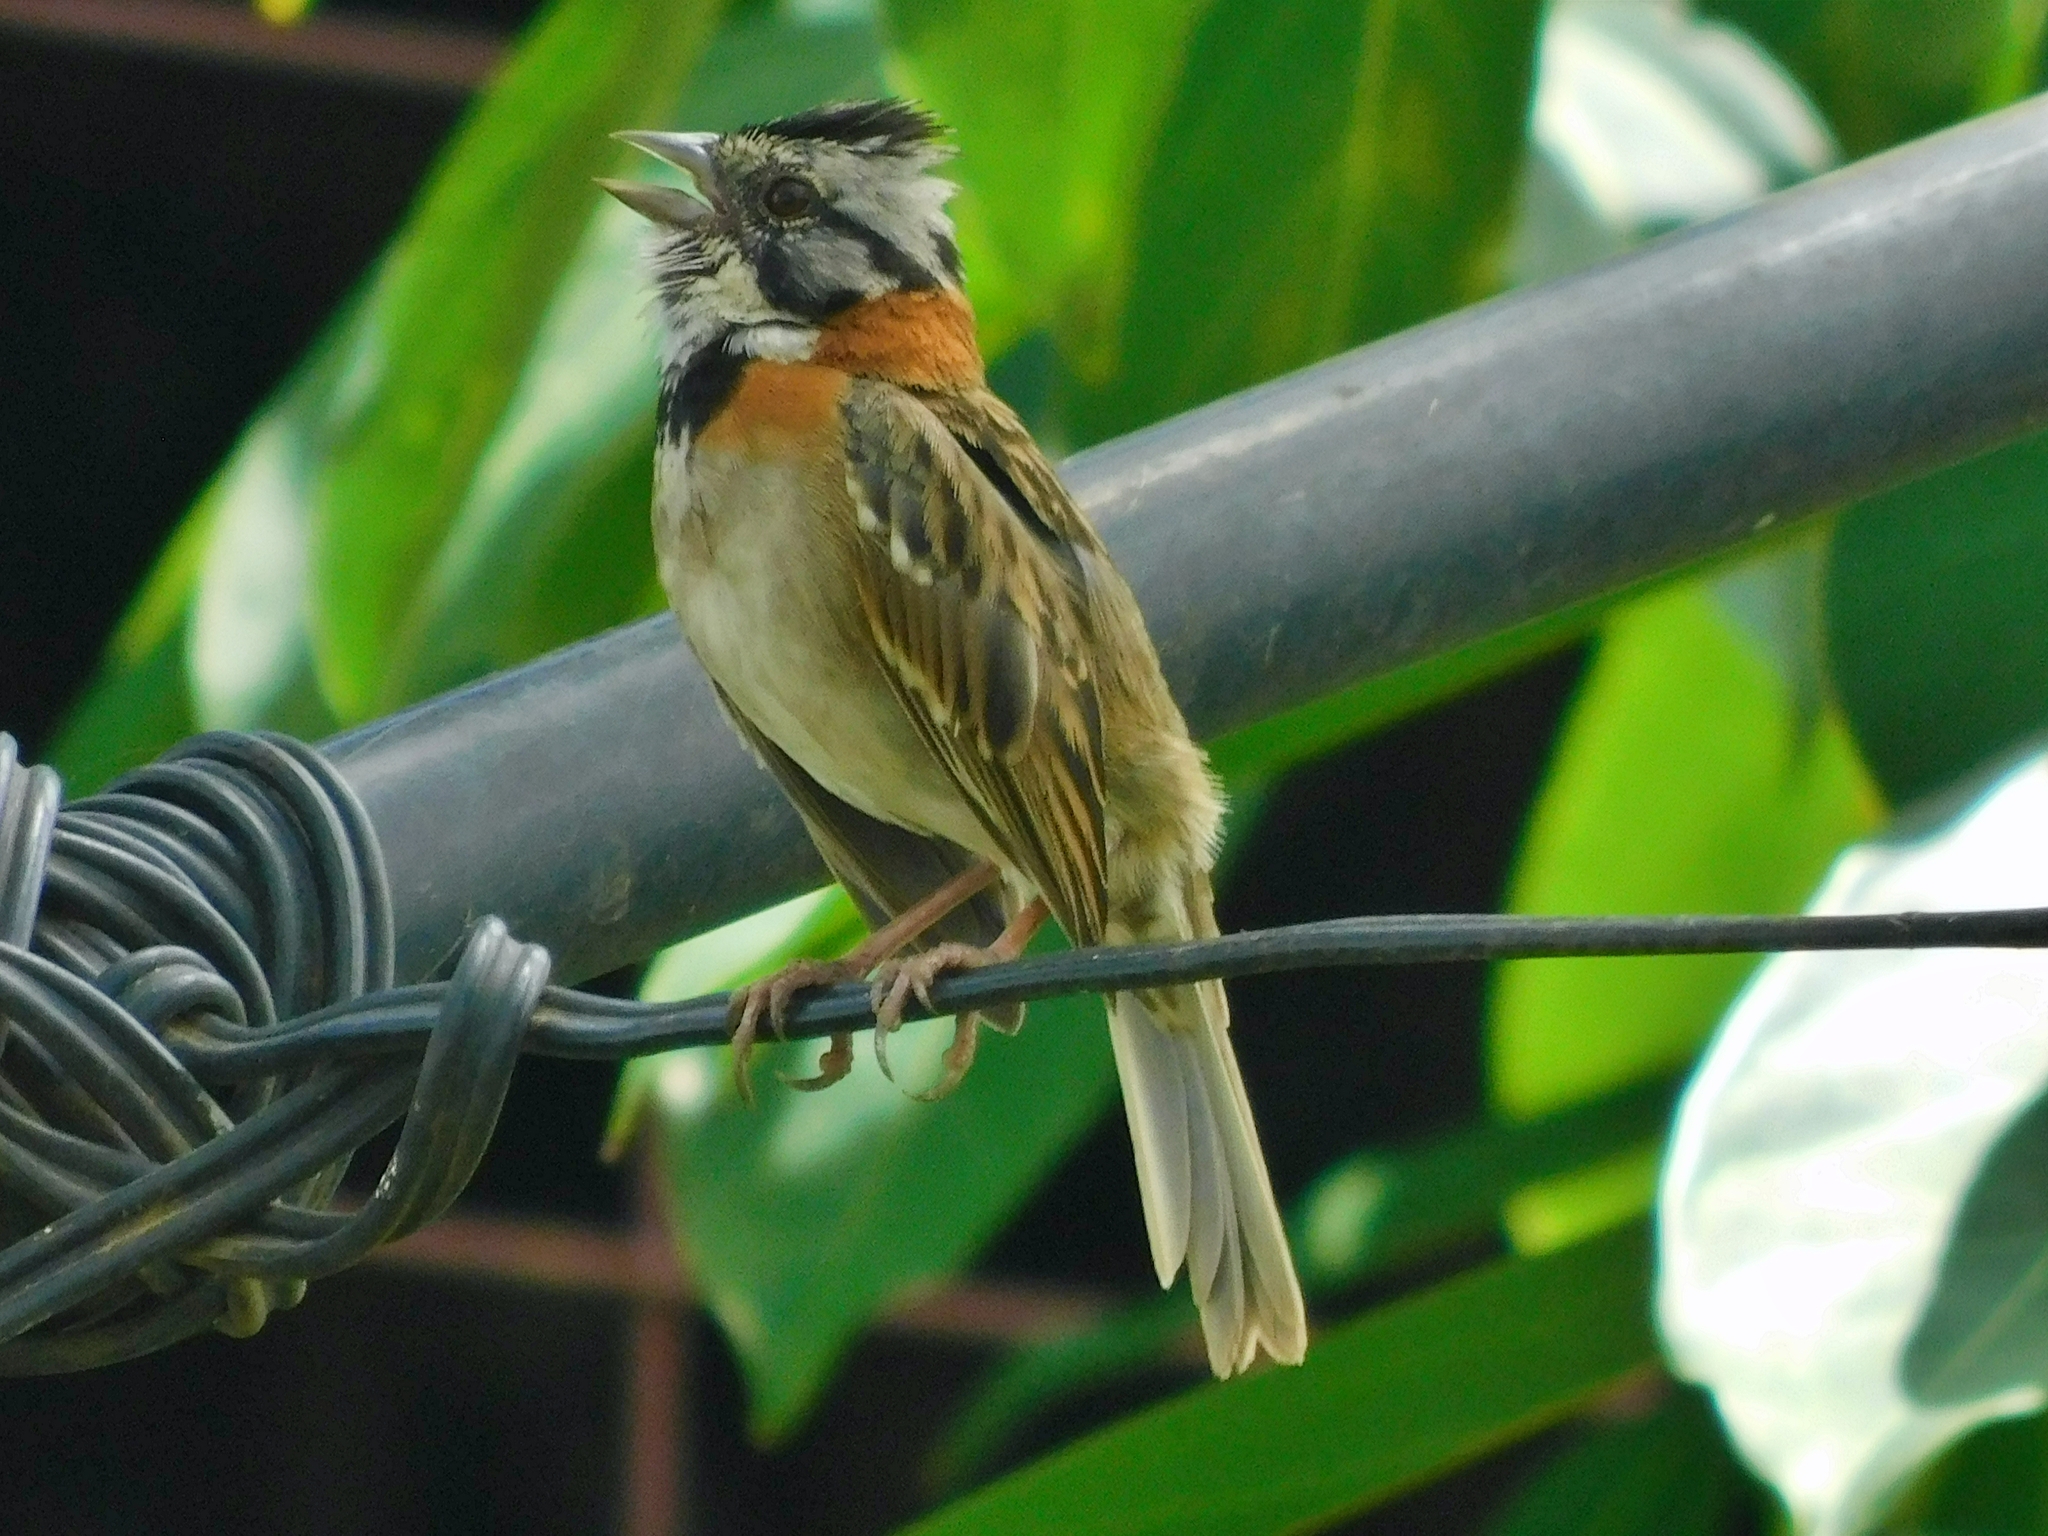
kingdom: Animalia
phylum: Chordata
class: Aves
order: Passeriformes
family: Passerellidae
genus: Zonotrichia
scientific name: Zonotrichia capensis
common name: Rufous-collared sparrow
